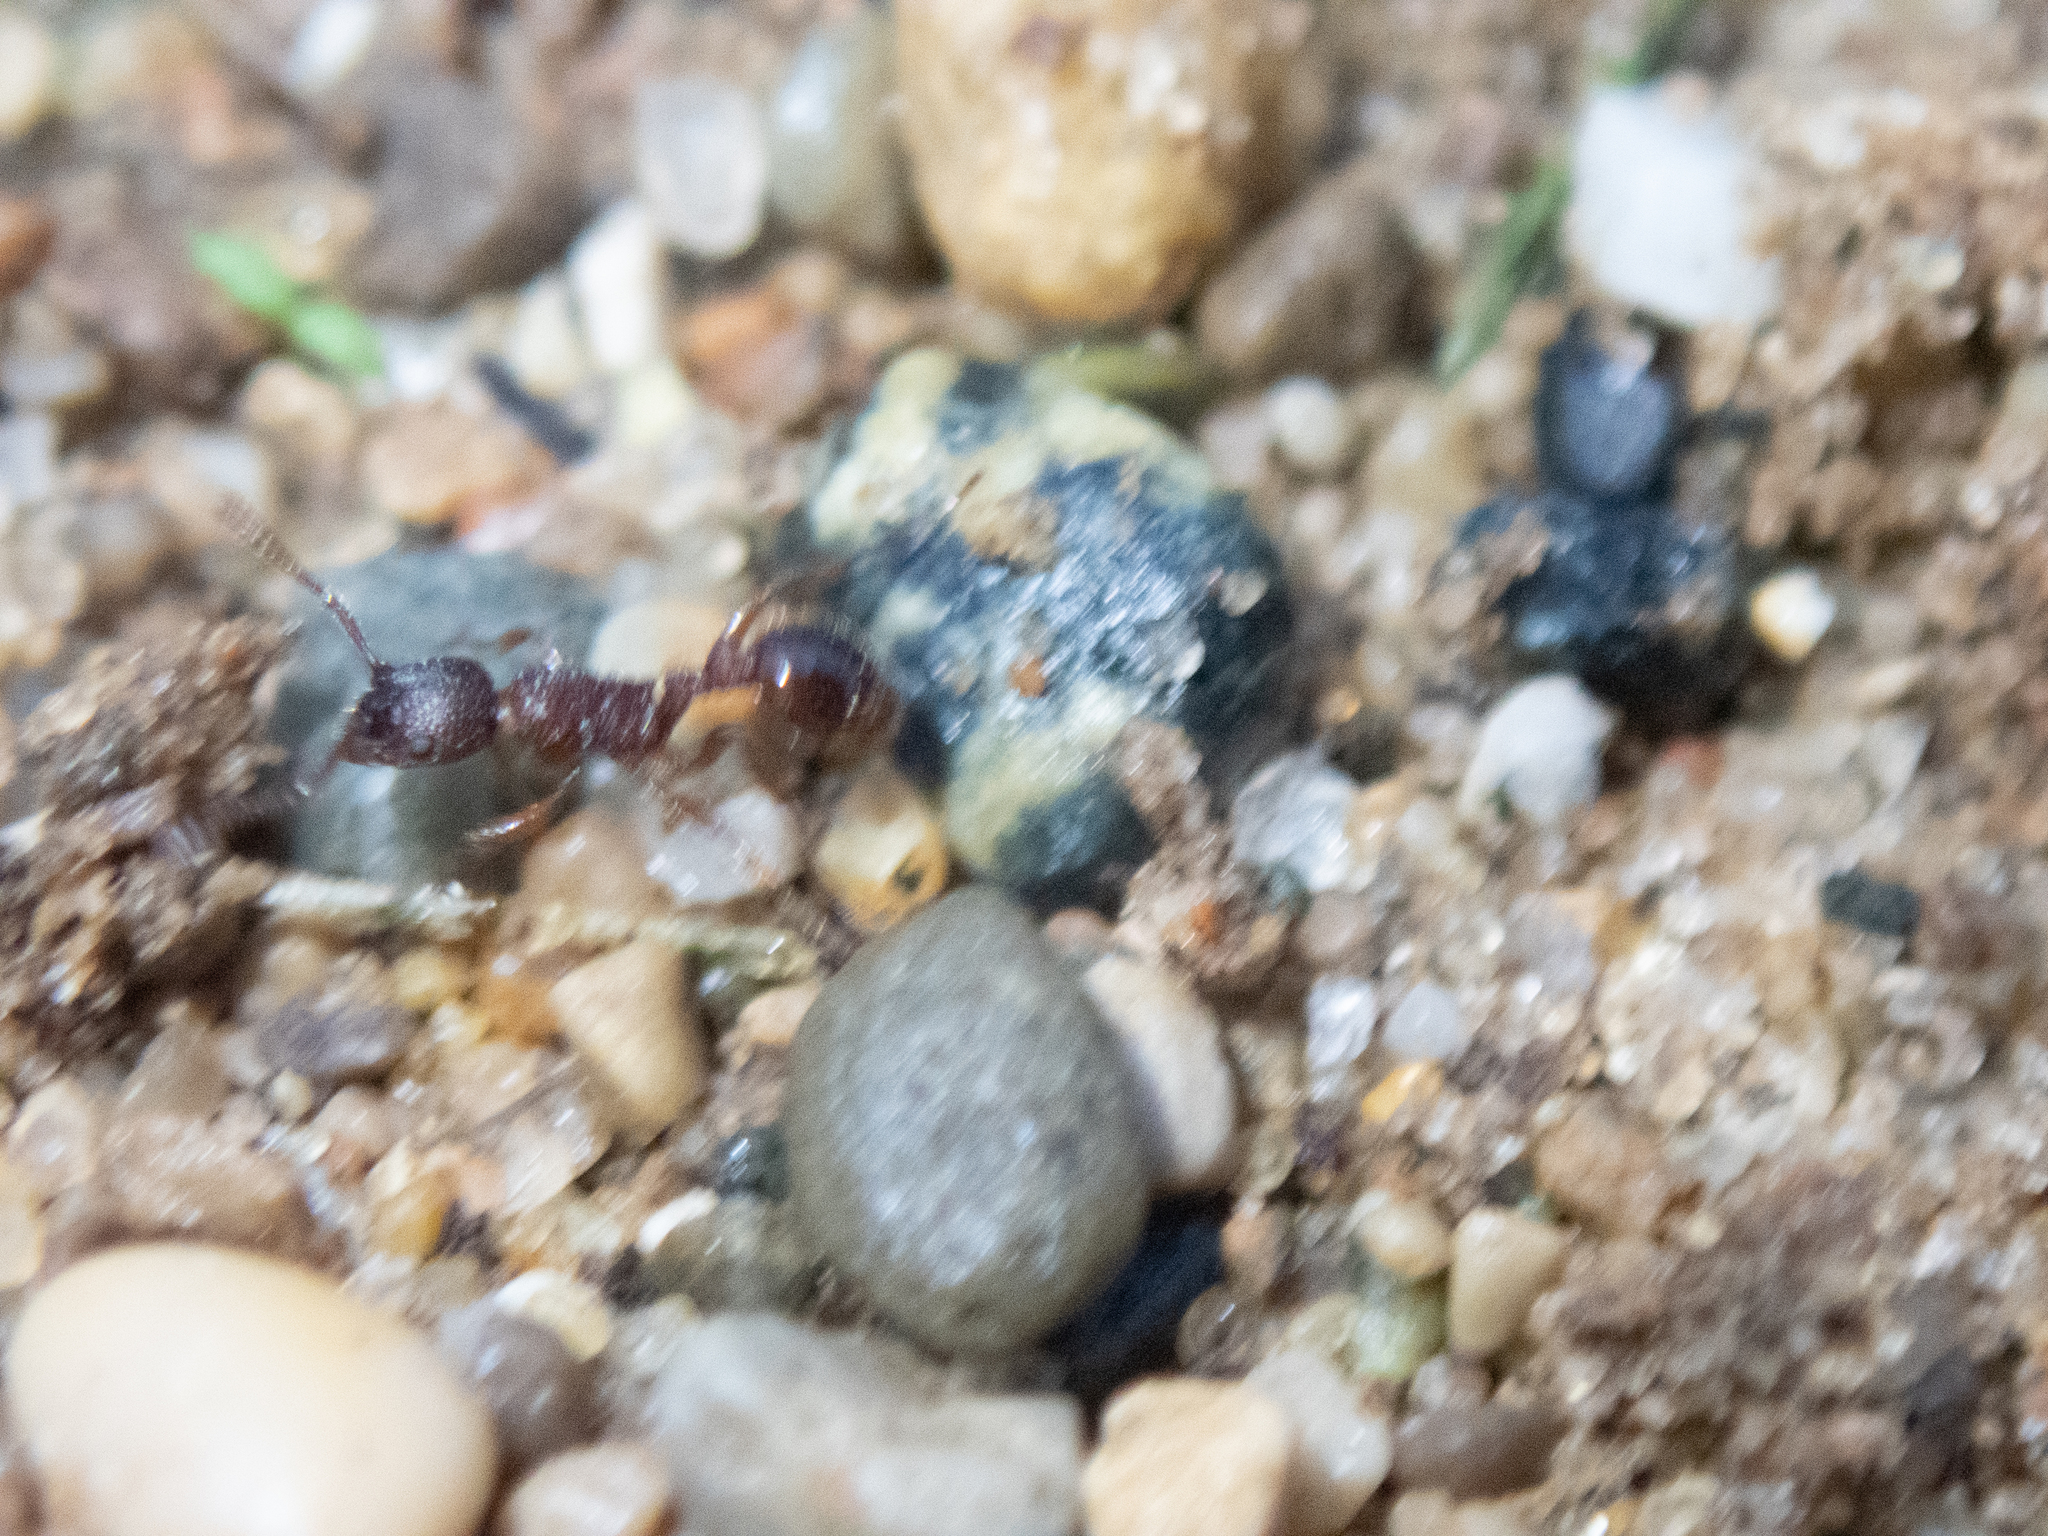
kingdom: Animalia
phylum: Arthropoda
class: Insecta
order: Hymenoptera
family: Formicidae
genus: Myrmica
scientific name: Myrmica americana
